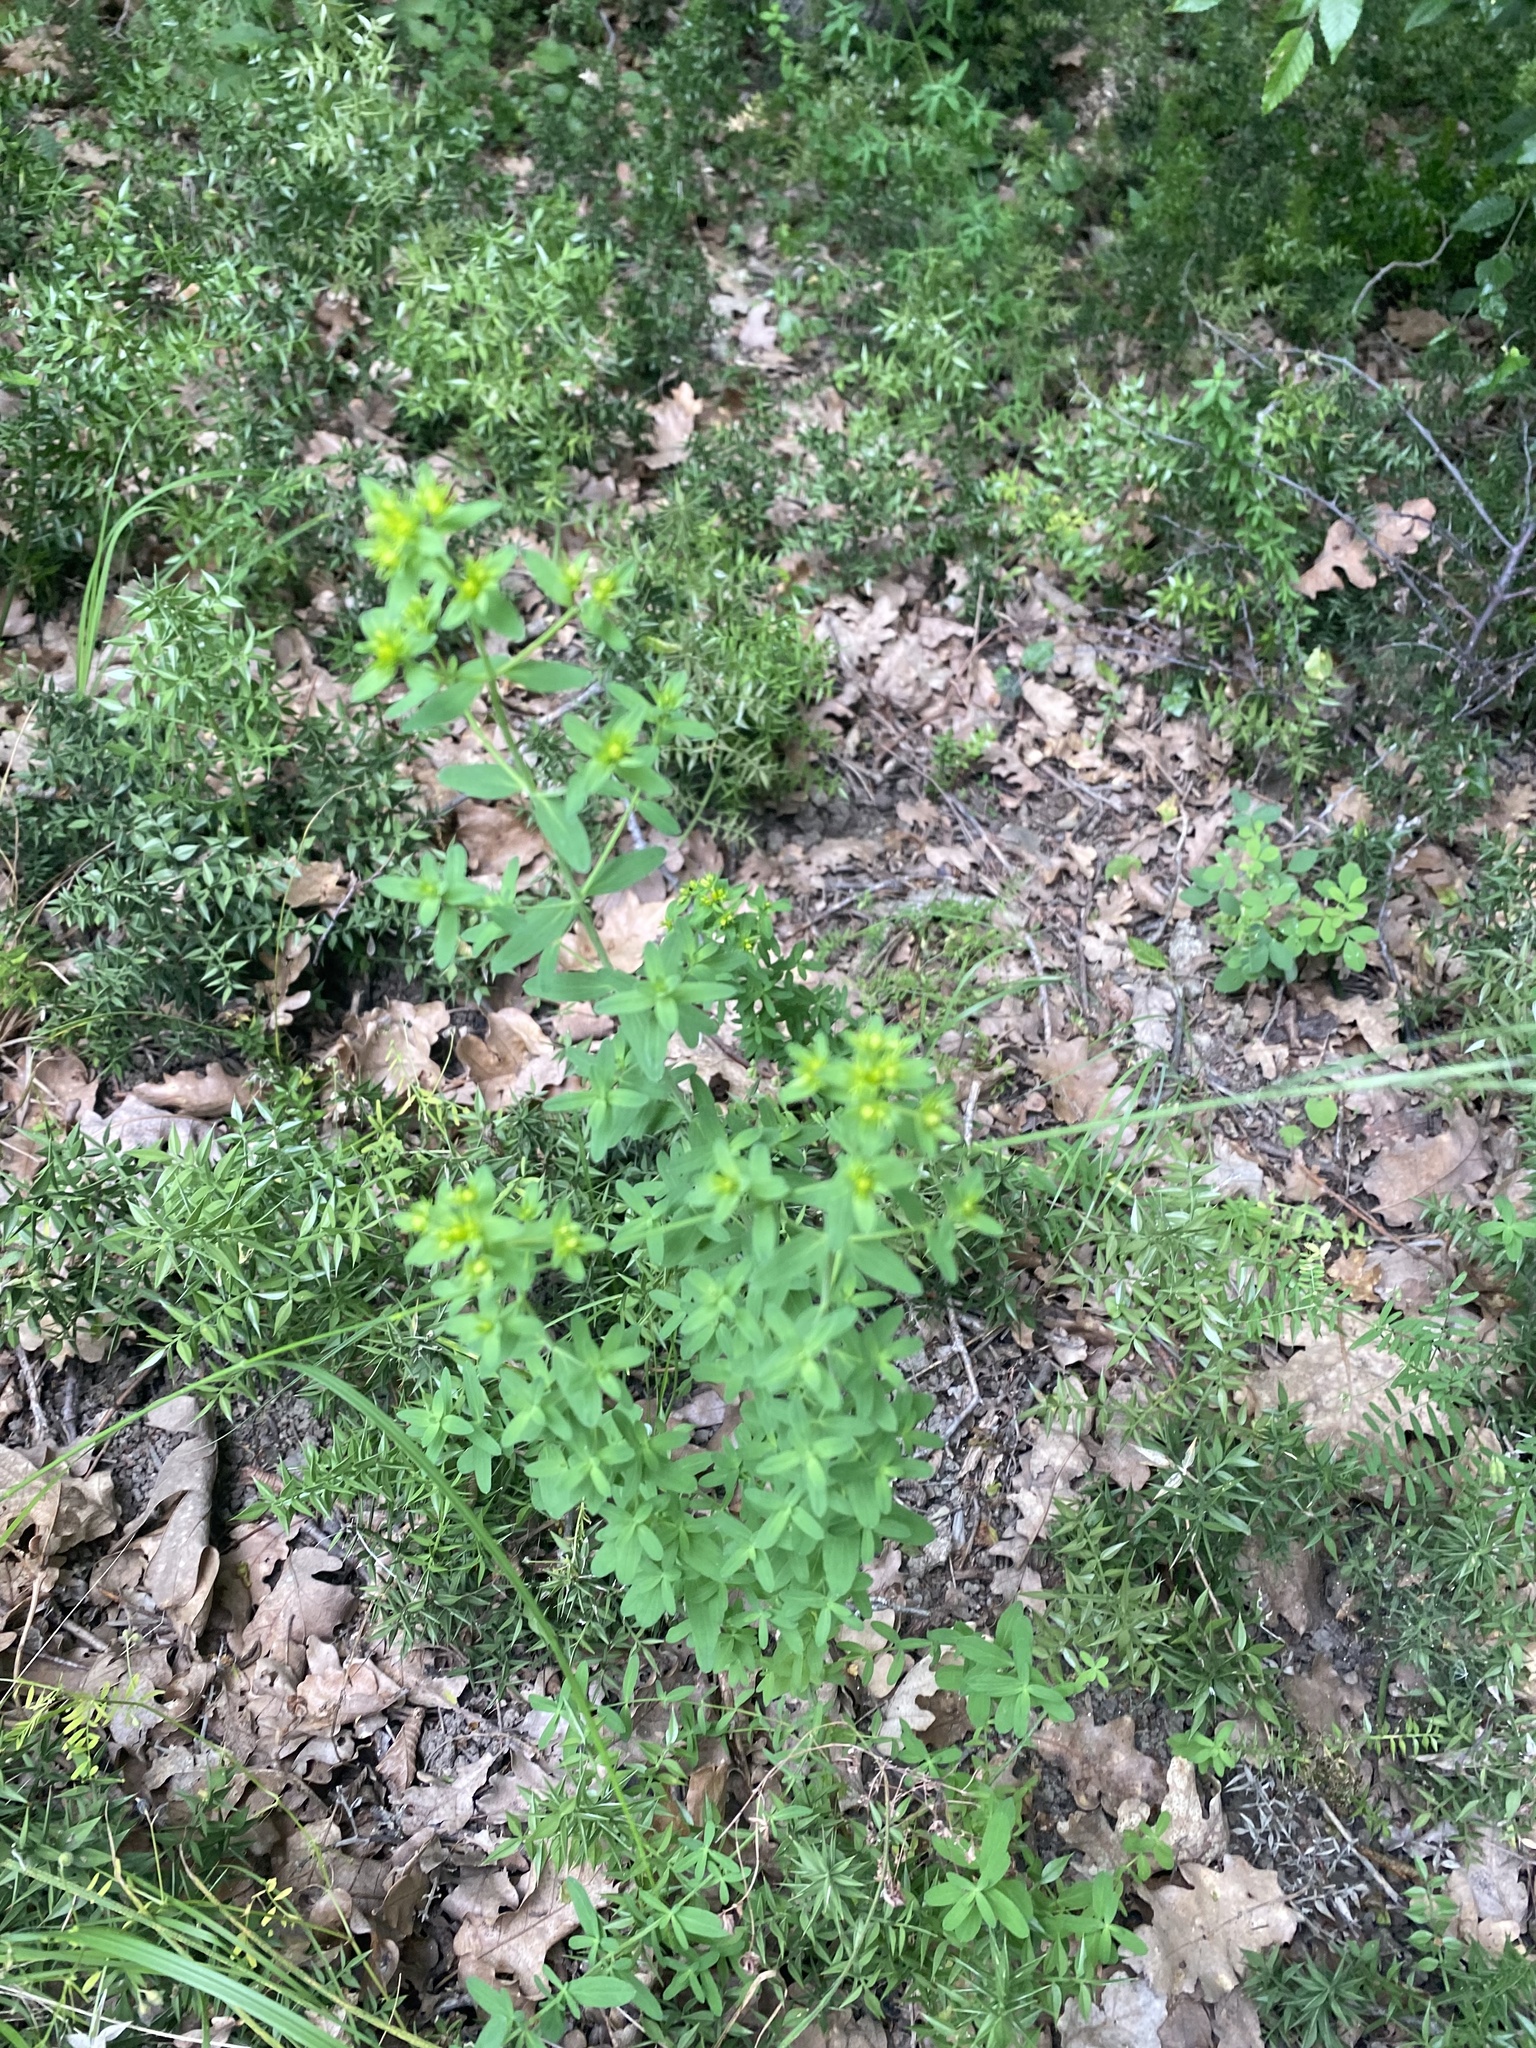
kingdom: Plantae
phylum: Tracheophyta
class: Magnoliopsida
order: Malpighiales
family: Hypericaceae
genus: Hypericum
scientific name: Hypericum perforatum
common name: Common st. johnswort
